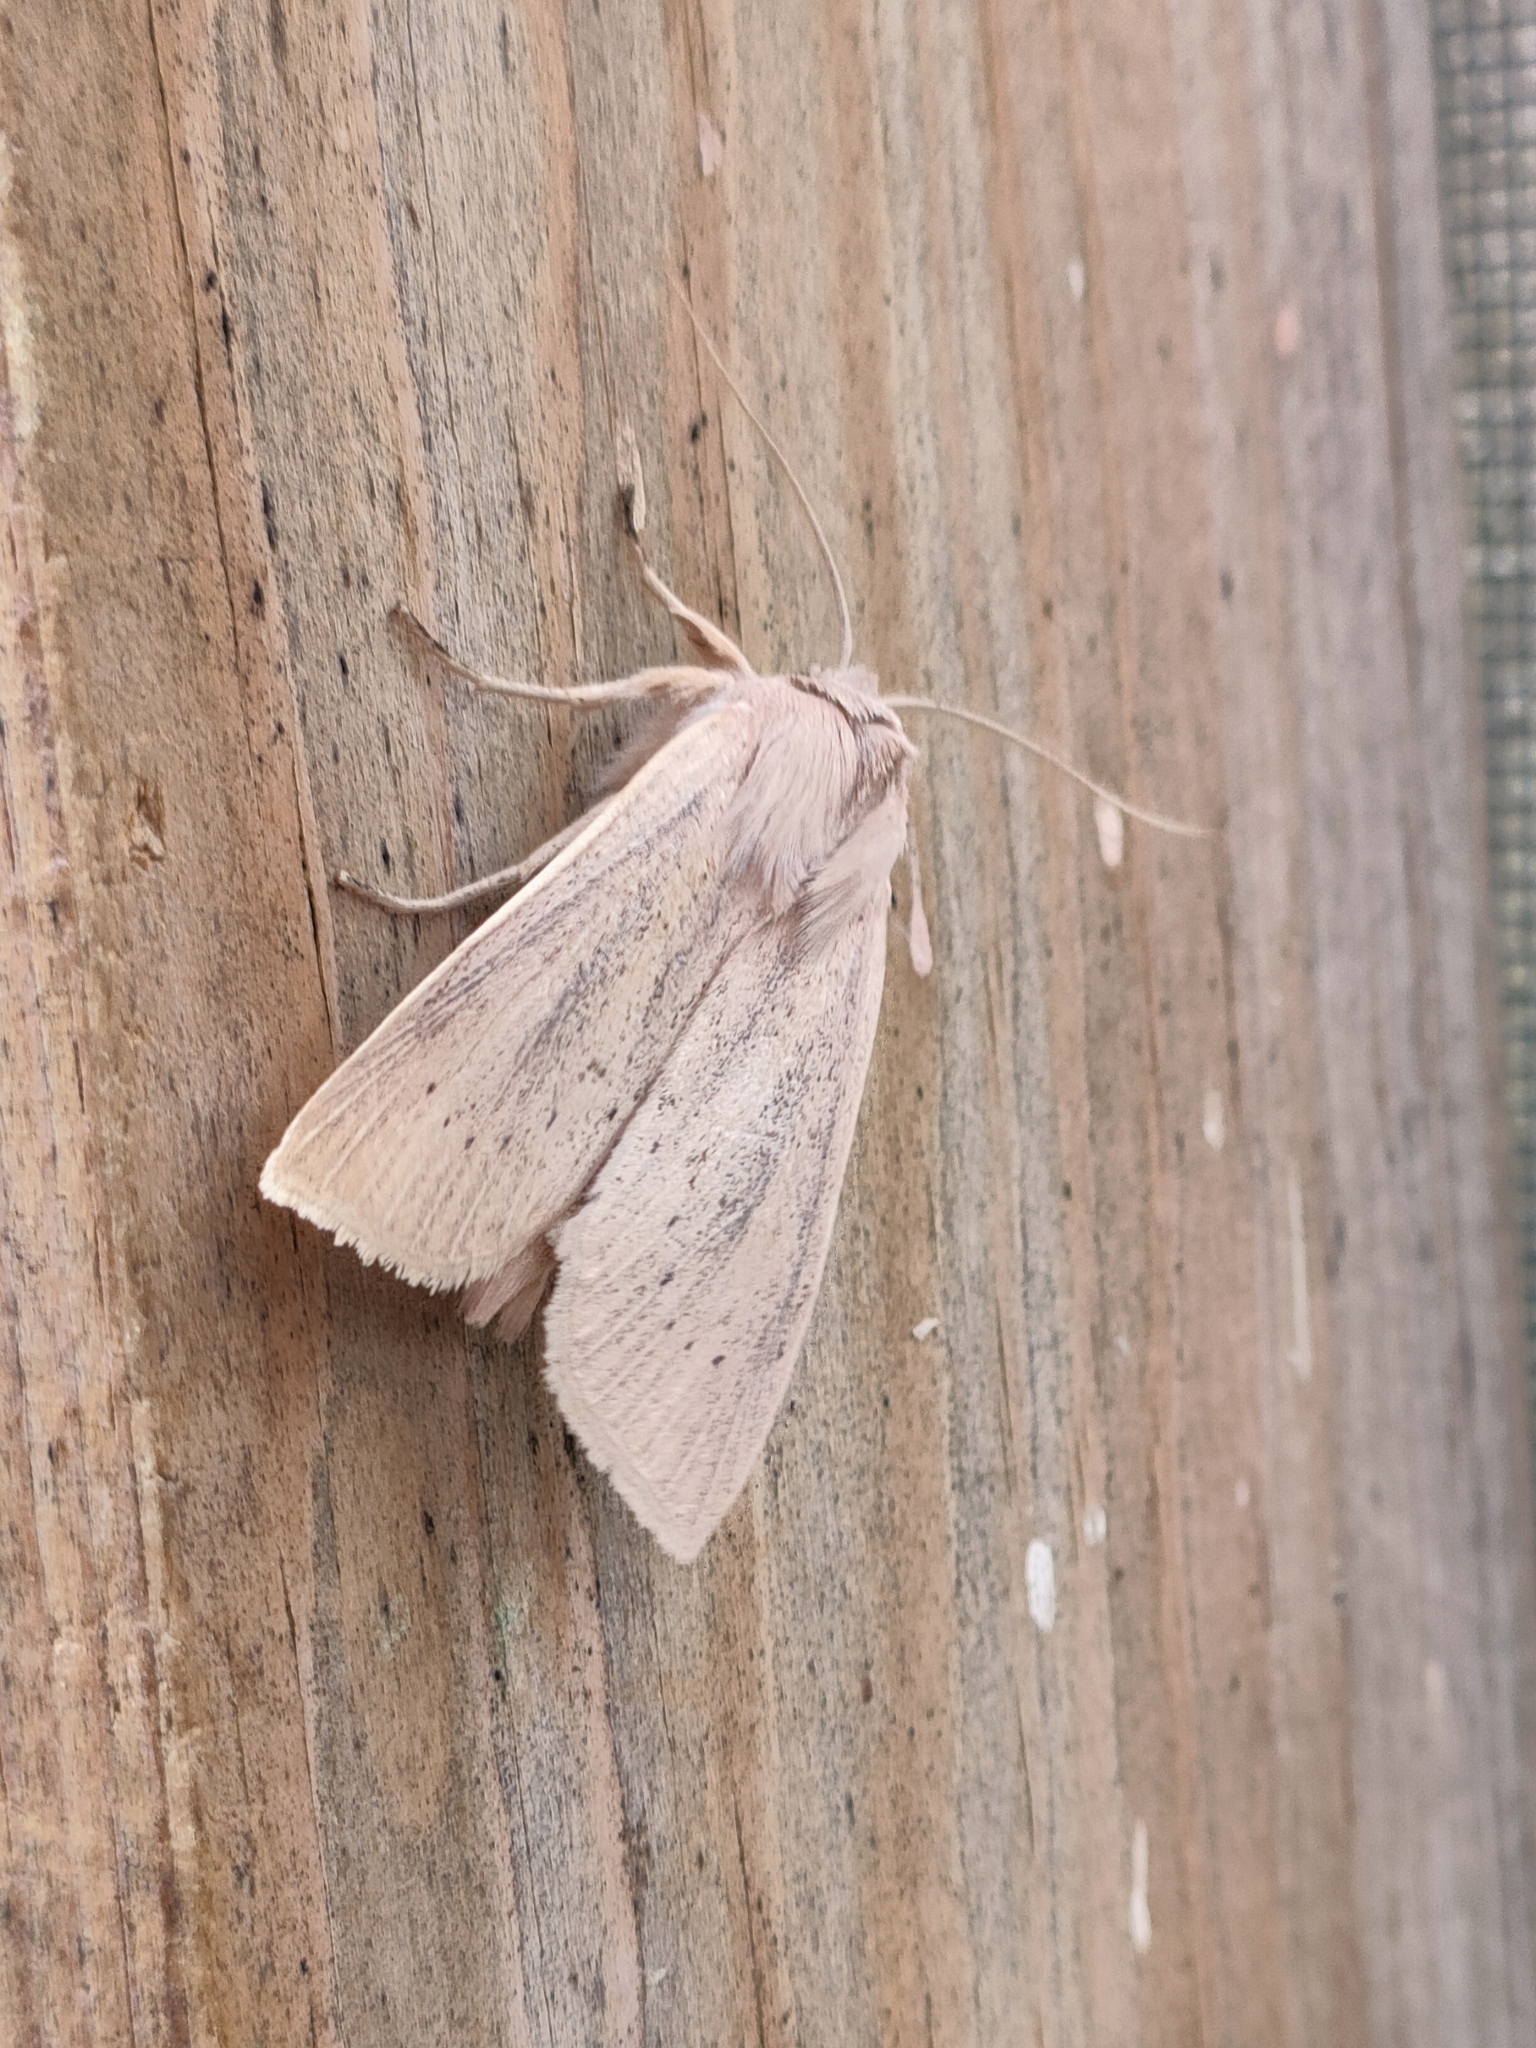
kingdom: Animalia
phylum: Arthropoda
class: Insecta
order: Lepidoptera
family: Noctuidae
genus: Rhizedra
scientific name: Rhizedra lutosa
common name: Large wainscot
